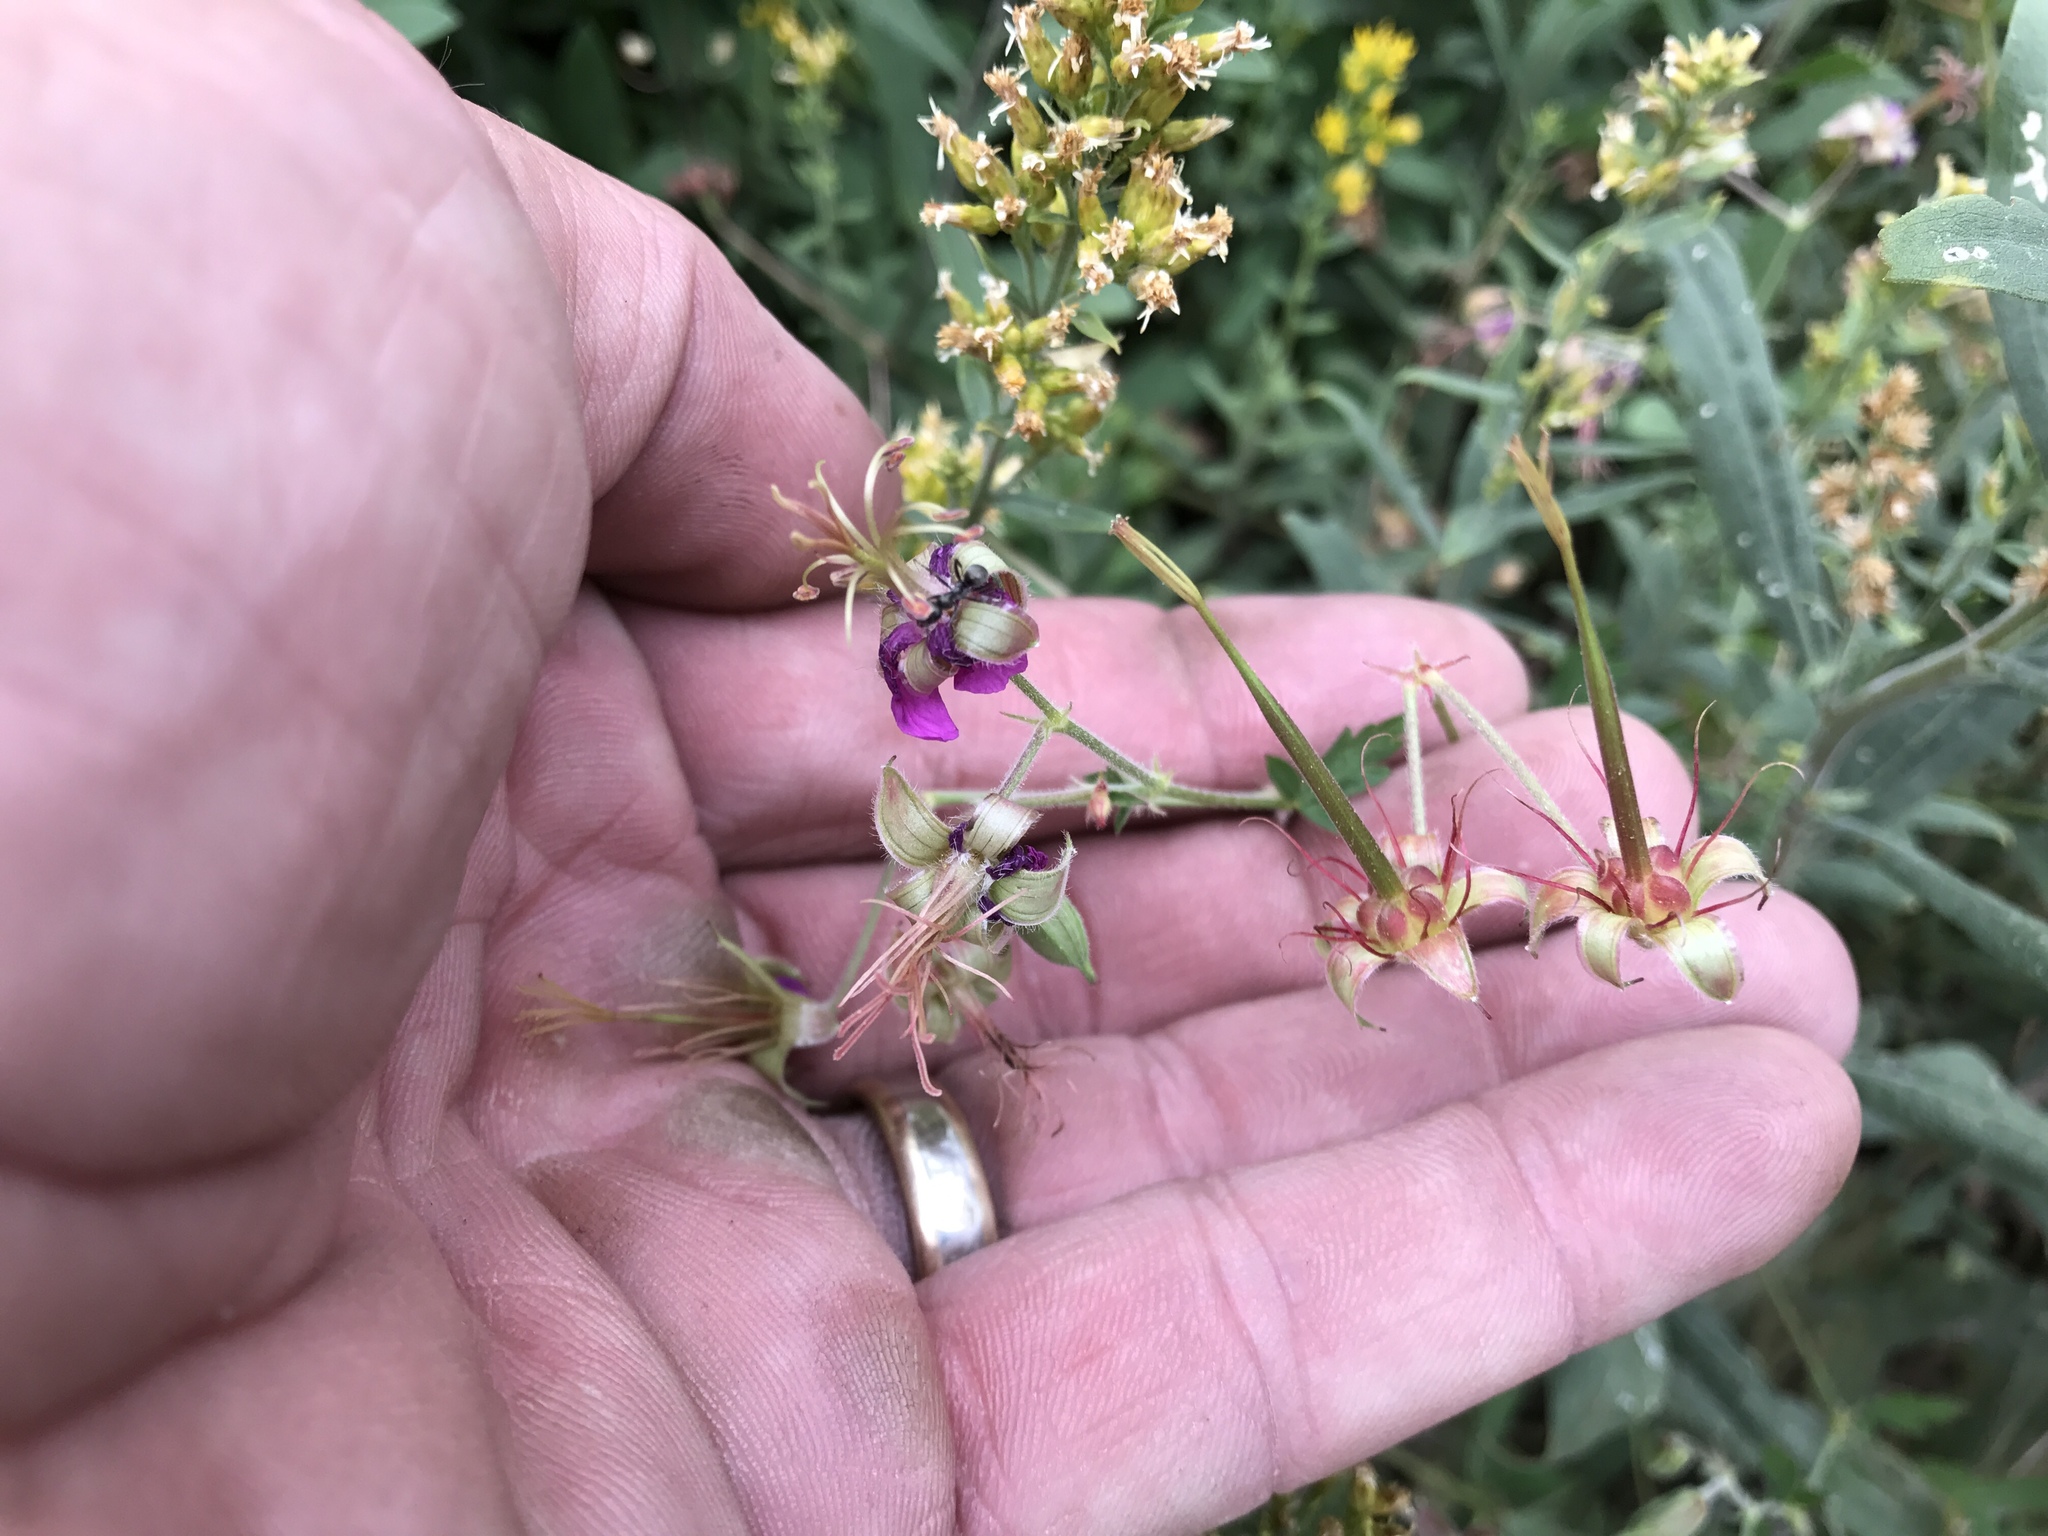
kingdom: Plantae
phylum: Tracheophyta
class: Magnoliopsida
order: Geraniales
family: Geraniaceae
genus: Geranium
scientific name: Geranium caespitosum
